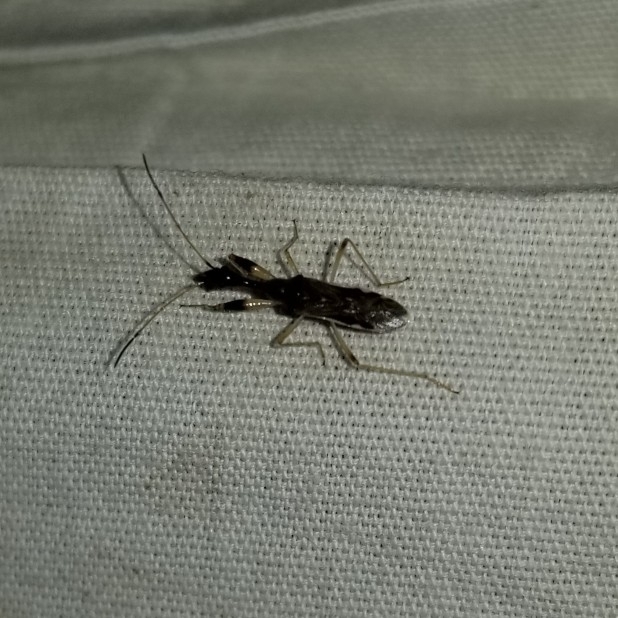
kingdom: Animalia
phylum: Arthropoda
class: Insecta
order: Hemiptera
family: Rhyparochromidae
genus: Myodocha
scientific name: Myodocha serripes
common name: Long-necked seed bug
